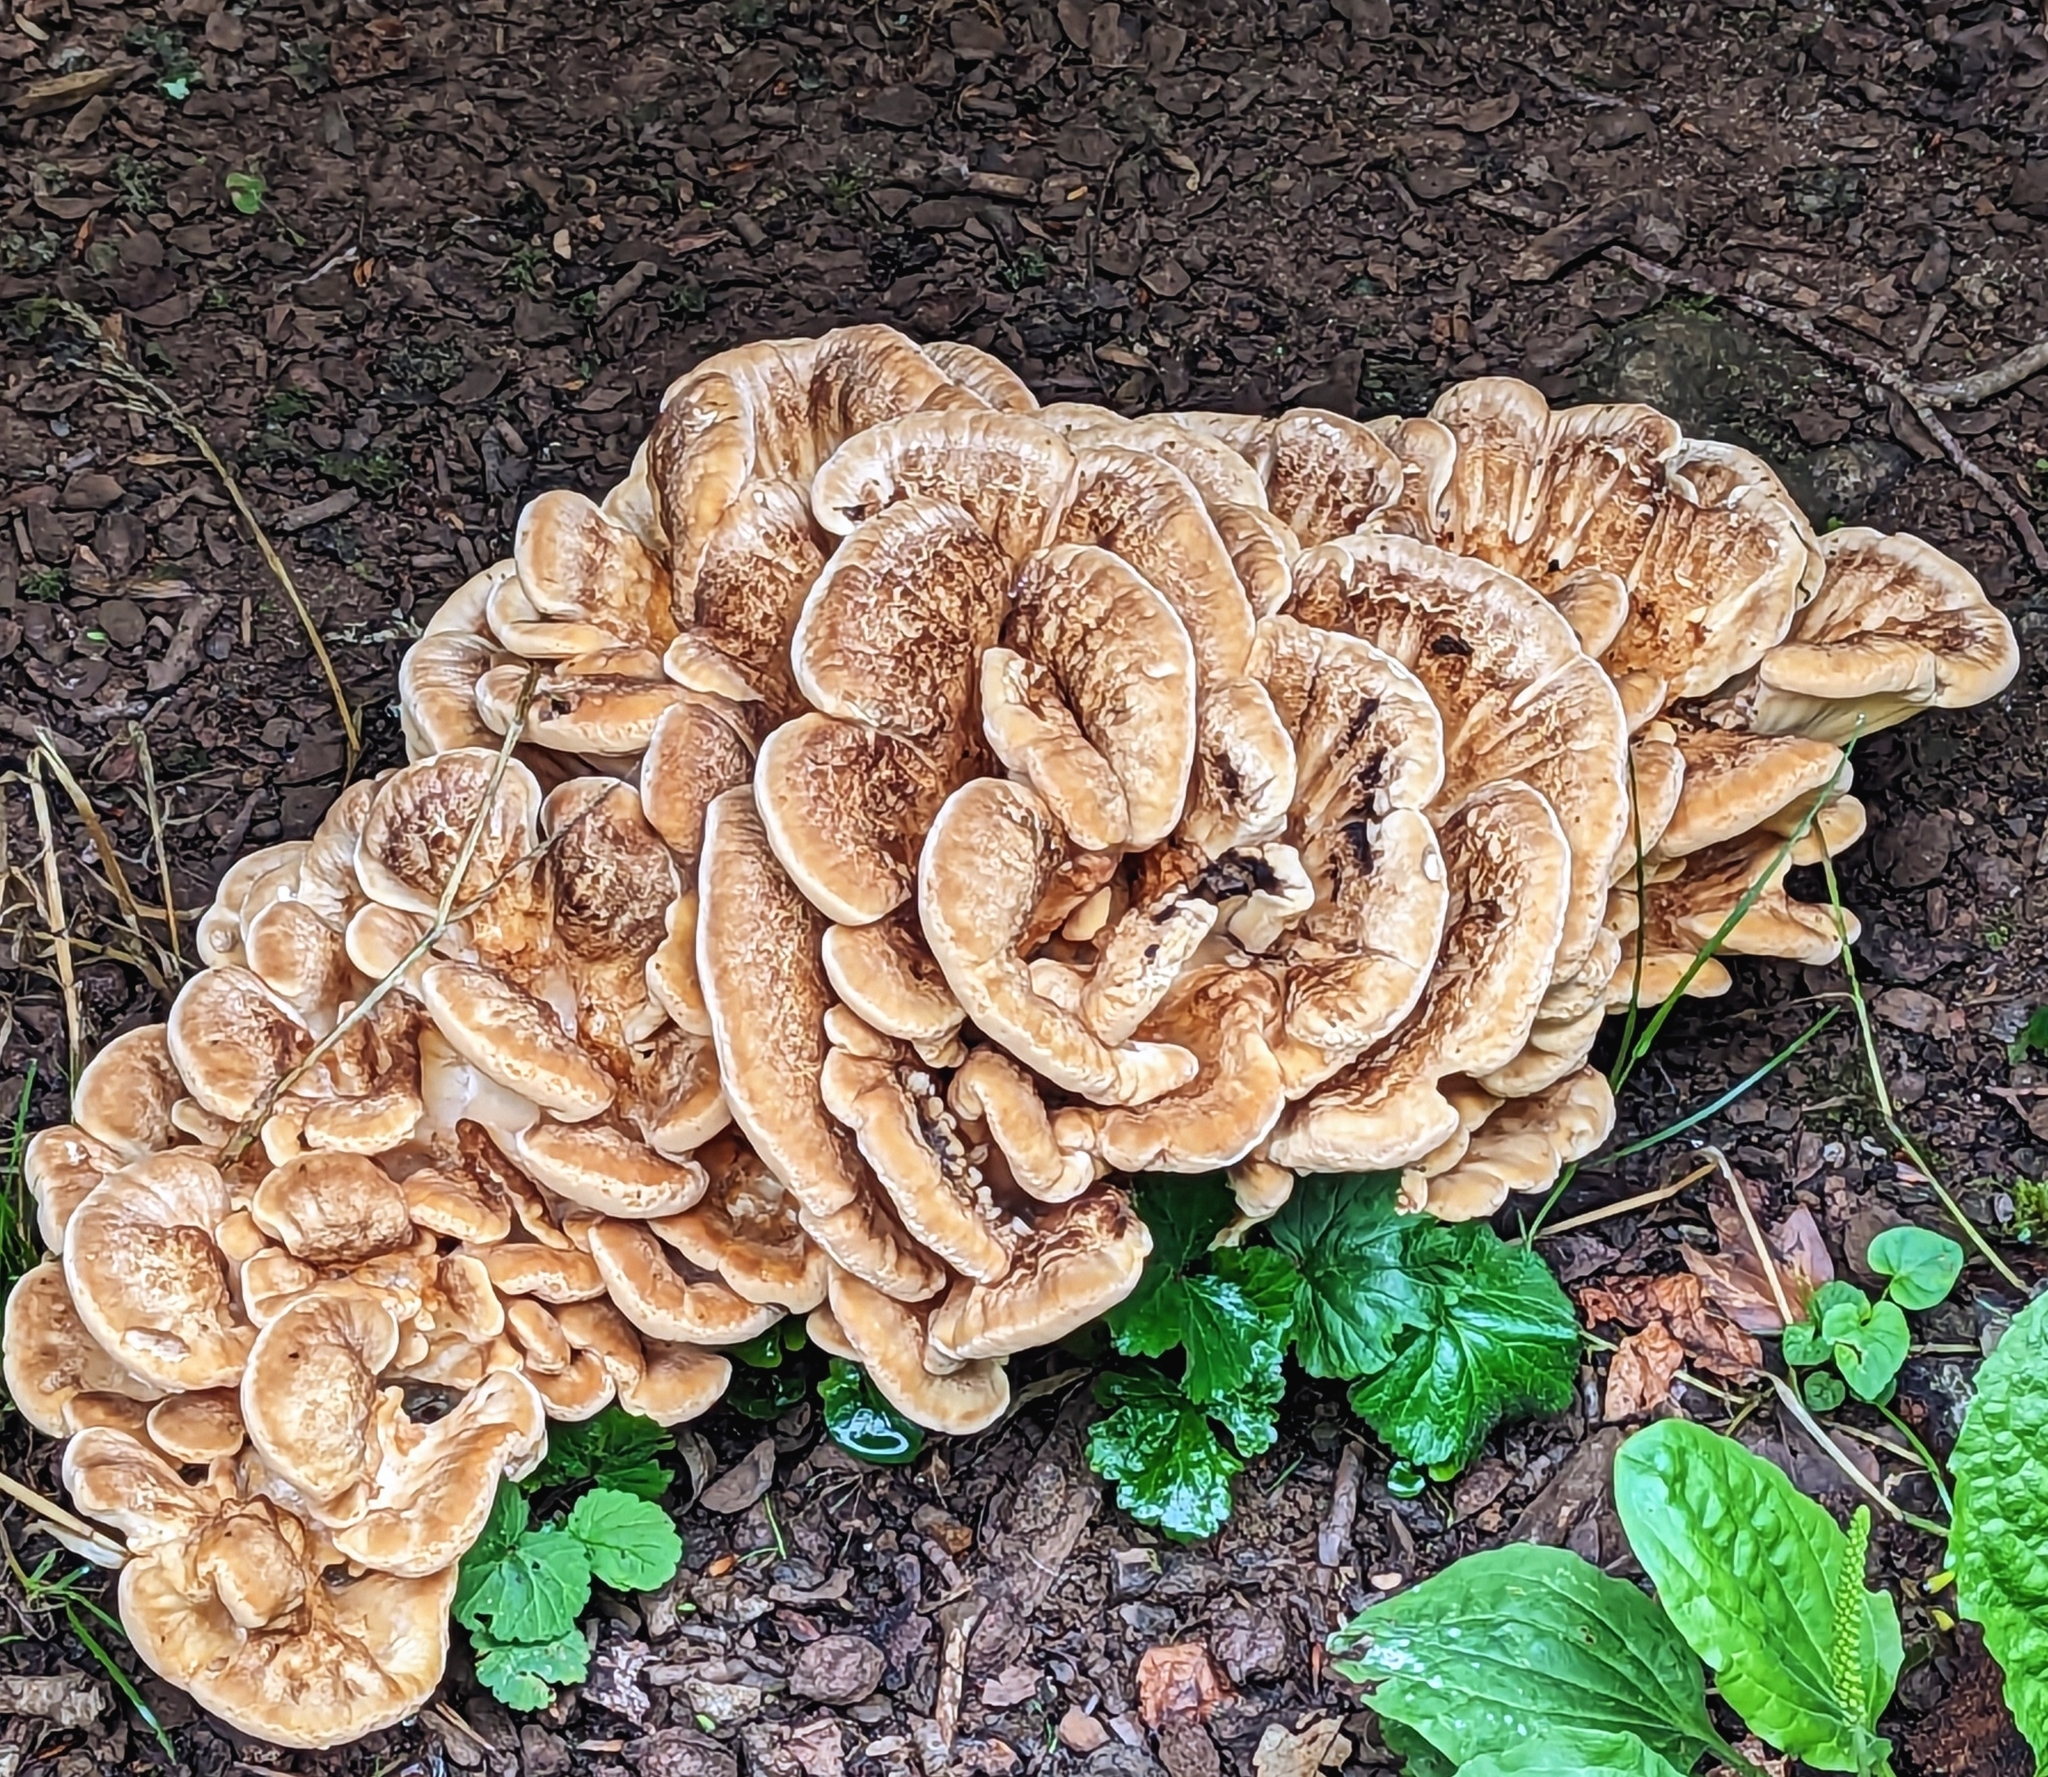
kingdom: Fungi
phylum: Basidiomycota
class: Agaricomycetes
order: Polyporales
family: Meripilaceae
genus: Meripilus
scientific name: Meripilus giganteus
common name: Giant polypore
